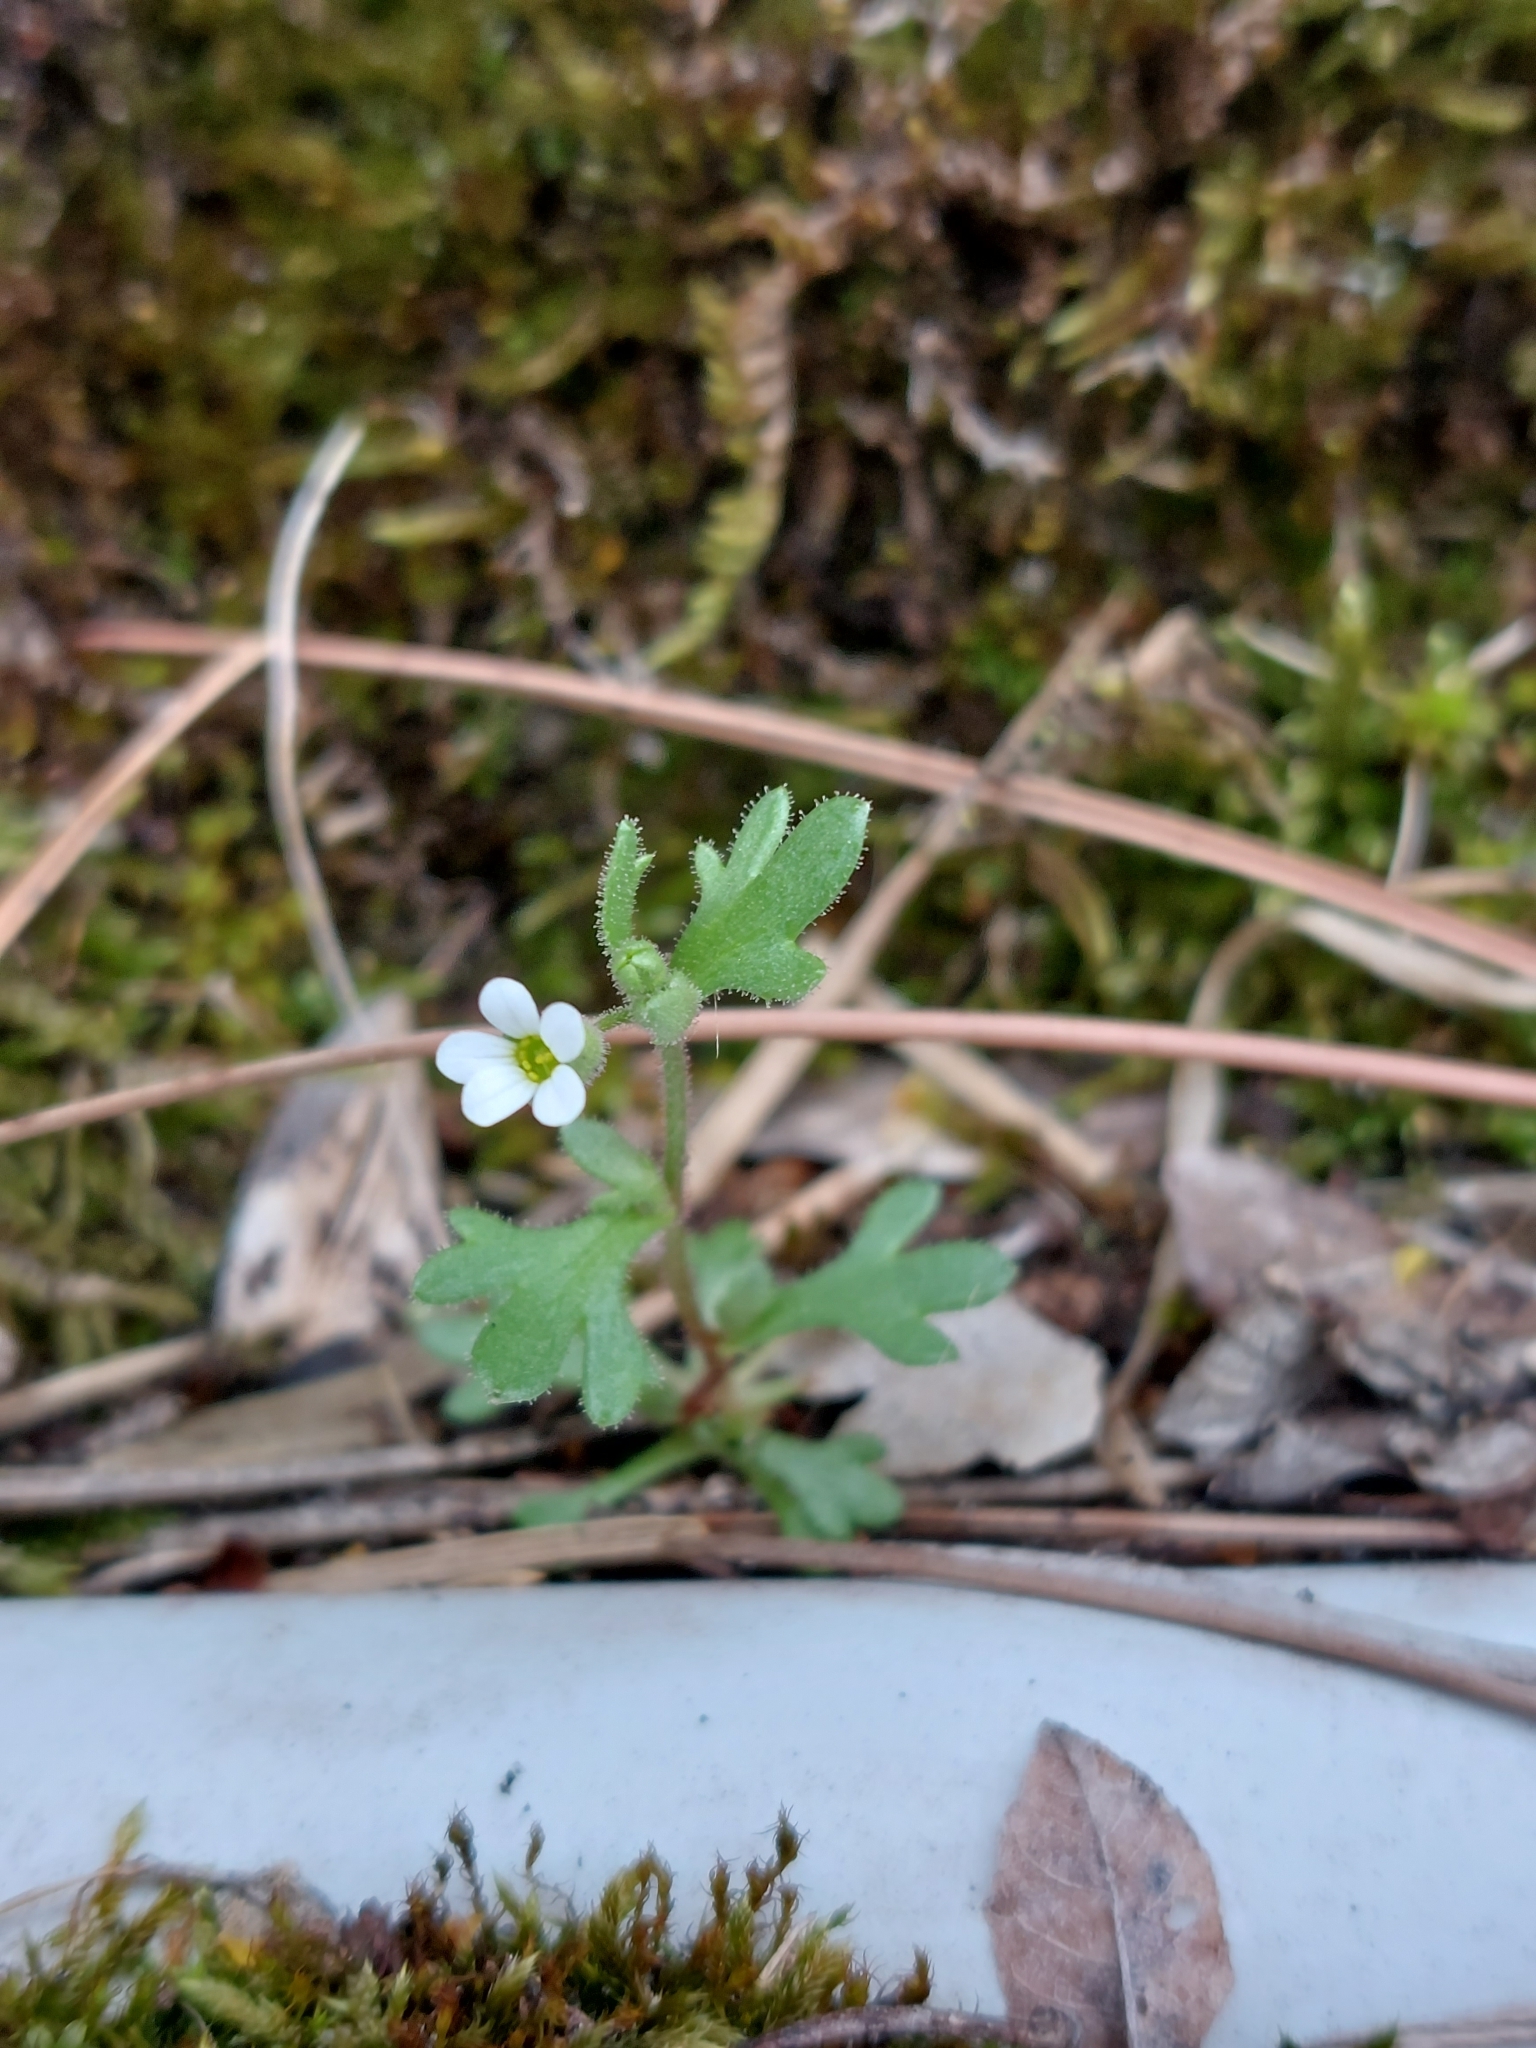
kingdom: Plantae
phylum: Tracheophyta
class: Magnoliopsida
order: Saxifragales
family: Saxifragaceae
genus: Saxifraga
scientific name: Saxifraga tridactylites
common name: Rue-leaved saxifrage
